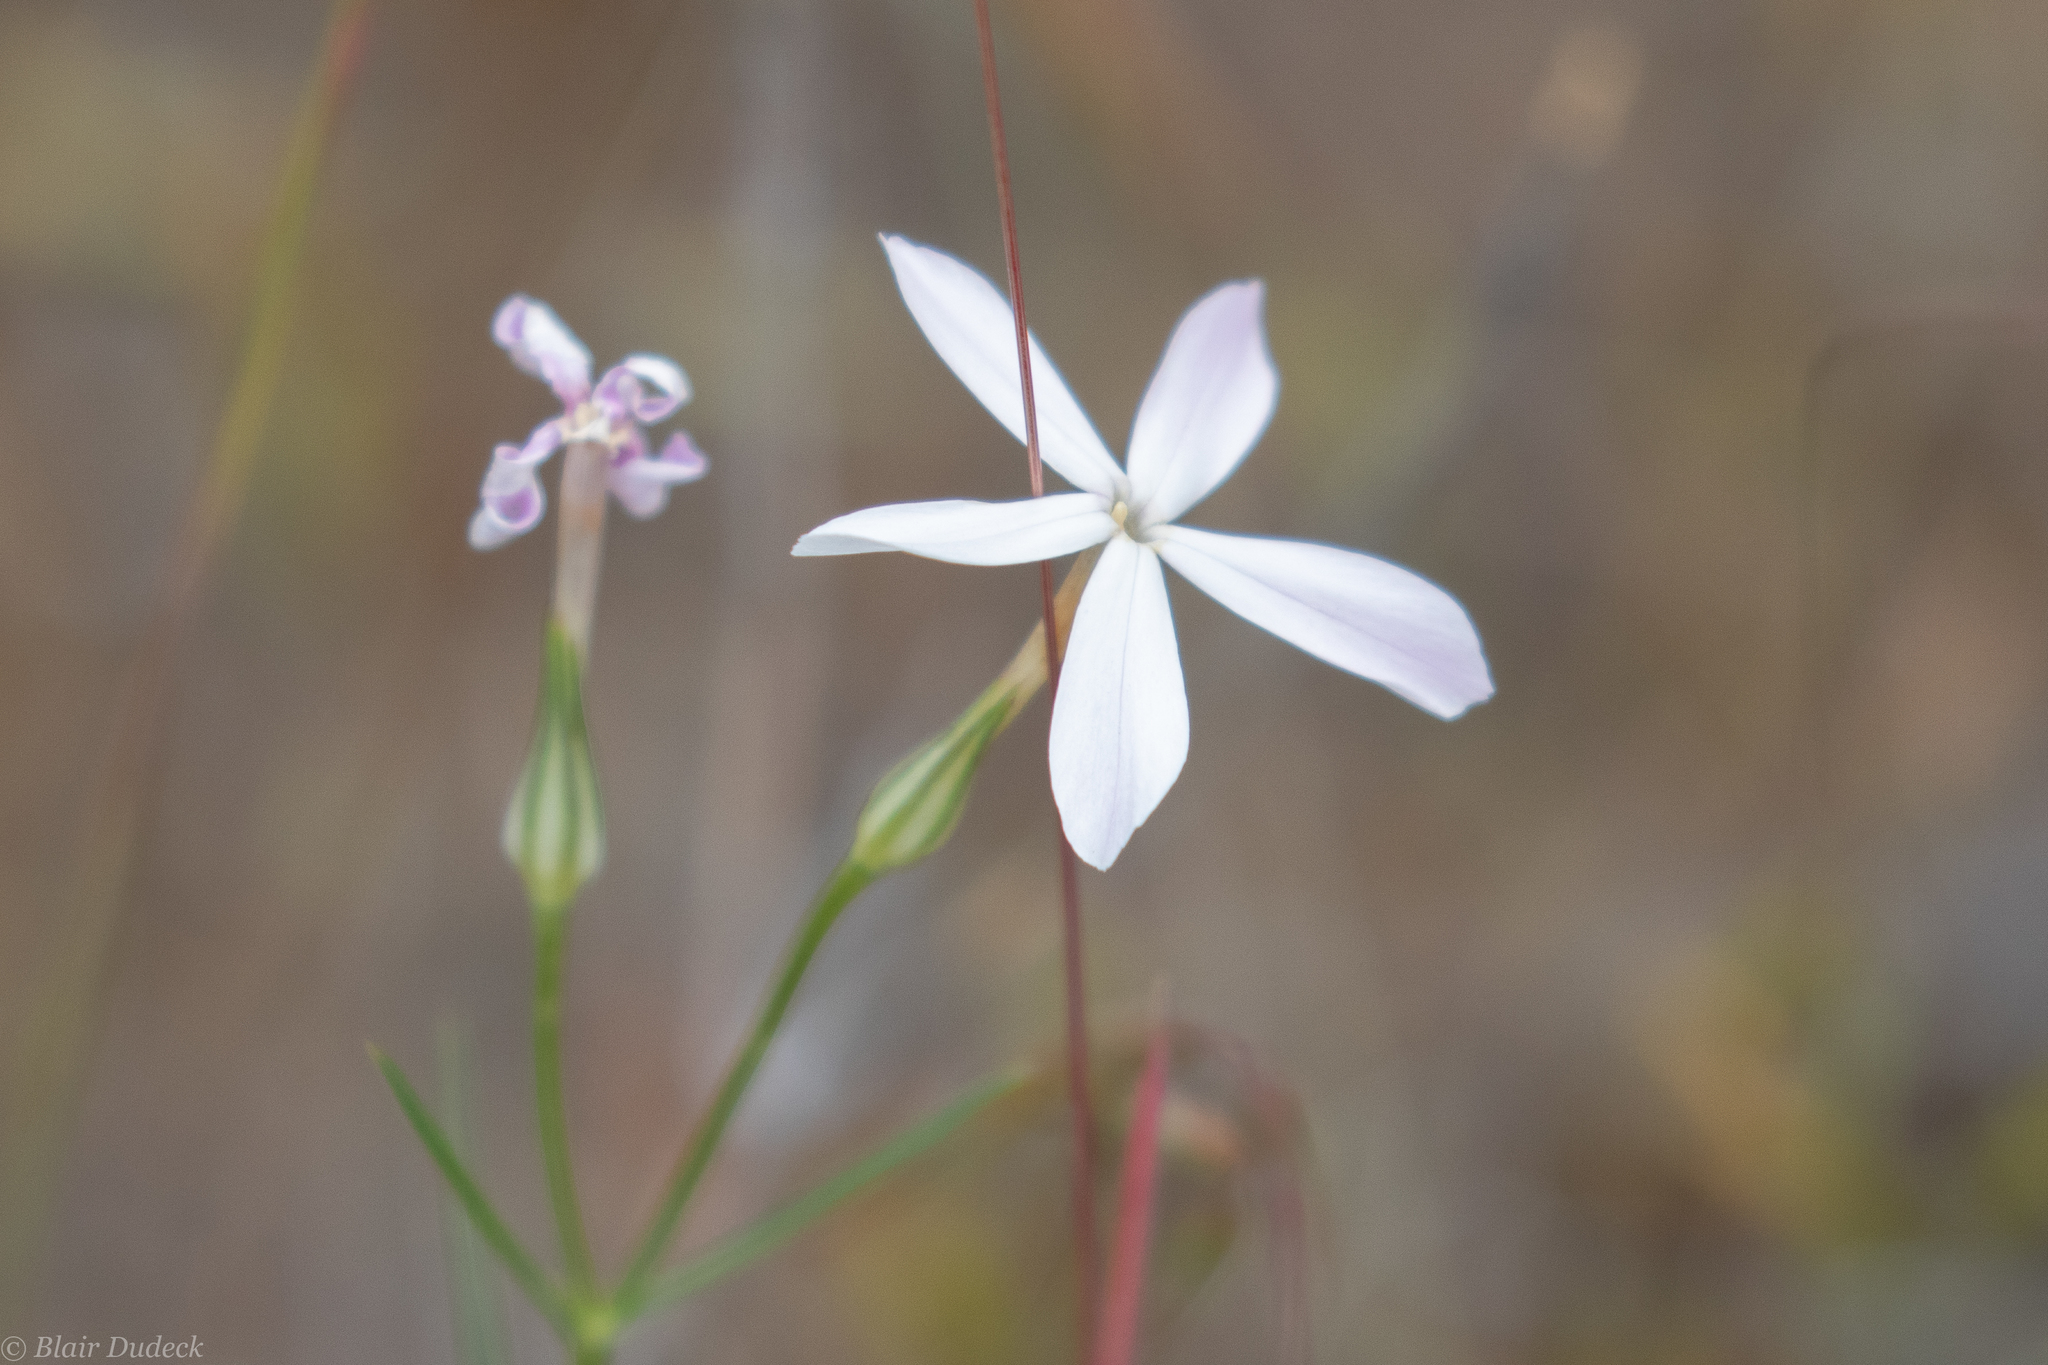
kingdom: Plantae
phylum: Tracheophyta
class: Magnoliopsida
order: Ericales
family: Polemoniaceae
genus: Phlox
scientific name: Phlox longifolia
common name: Longleaf phlox
